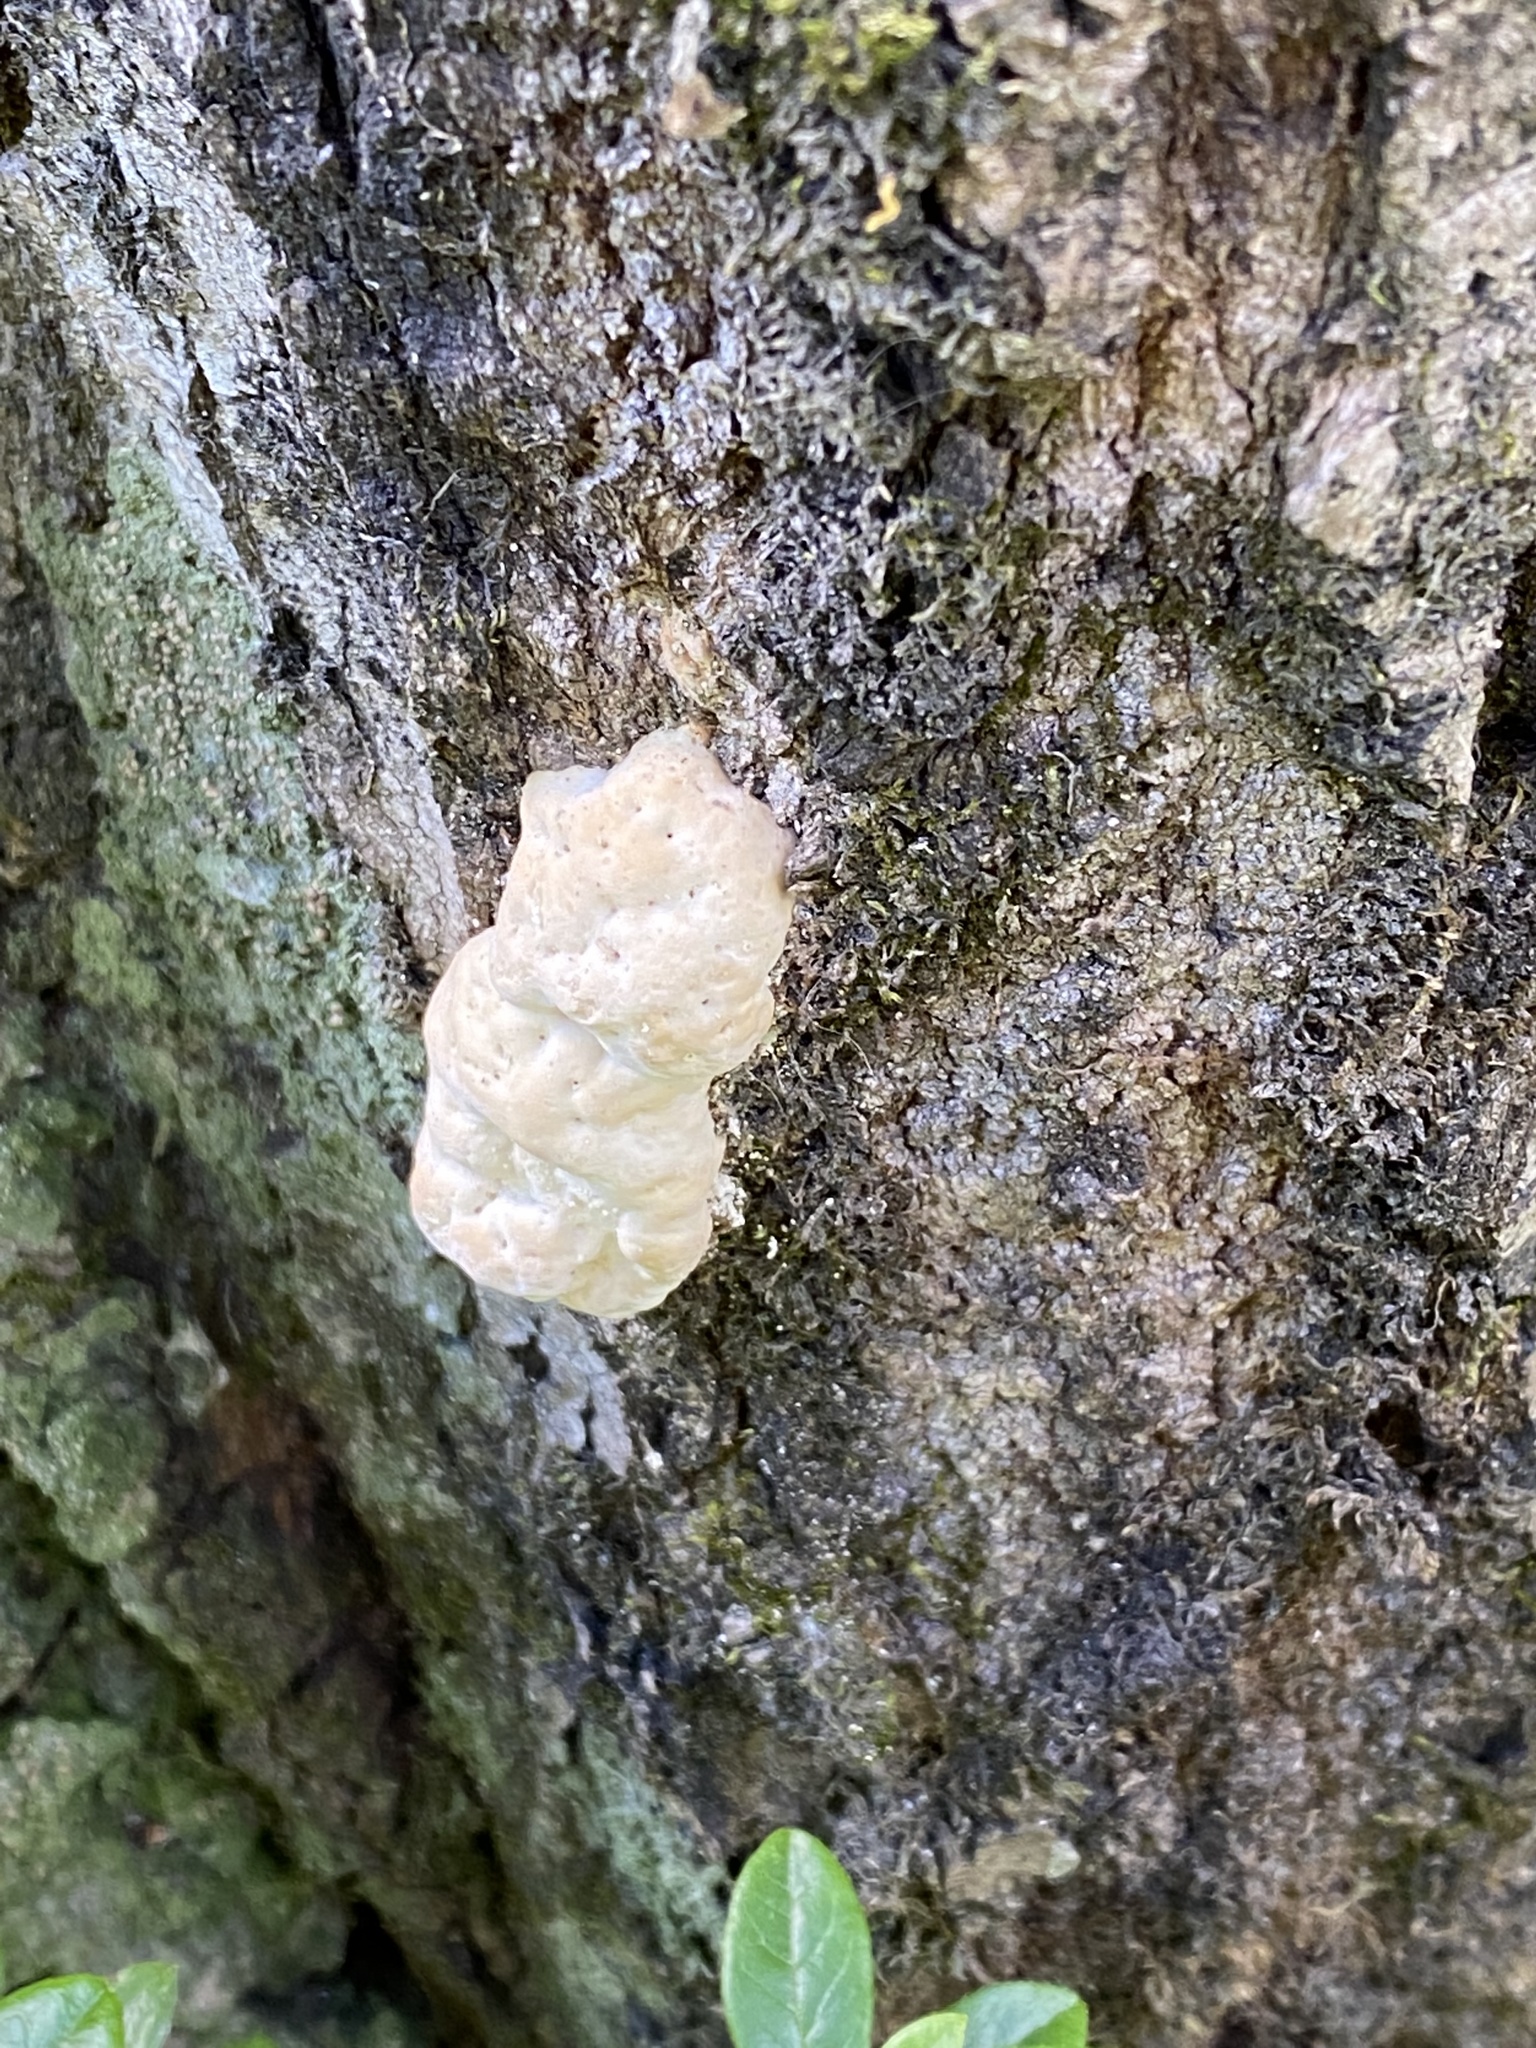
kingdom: Fungi
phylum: Basidiomycota
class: Agaricomycetes
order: Polyporales
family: Polyporaceae
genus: Trametes
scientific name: Trametes gibbosa
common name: Lumpy bracket
